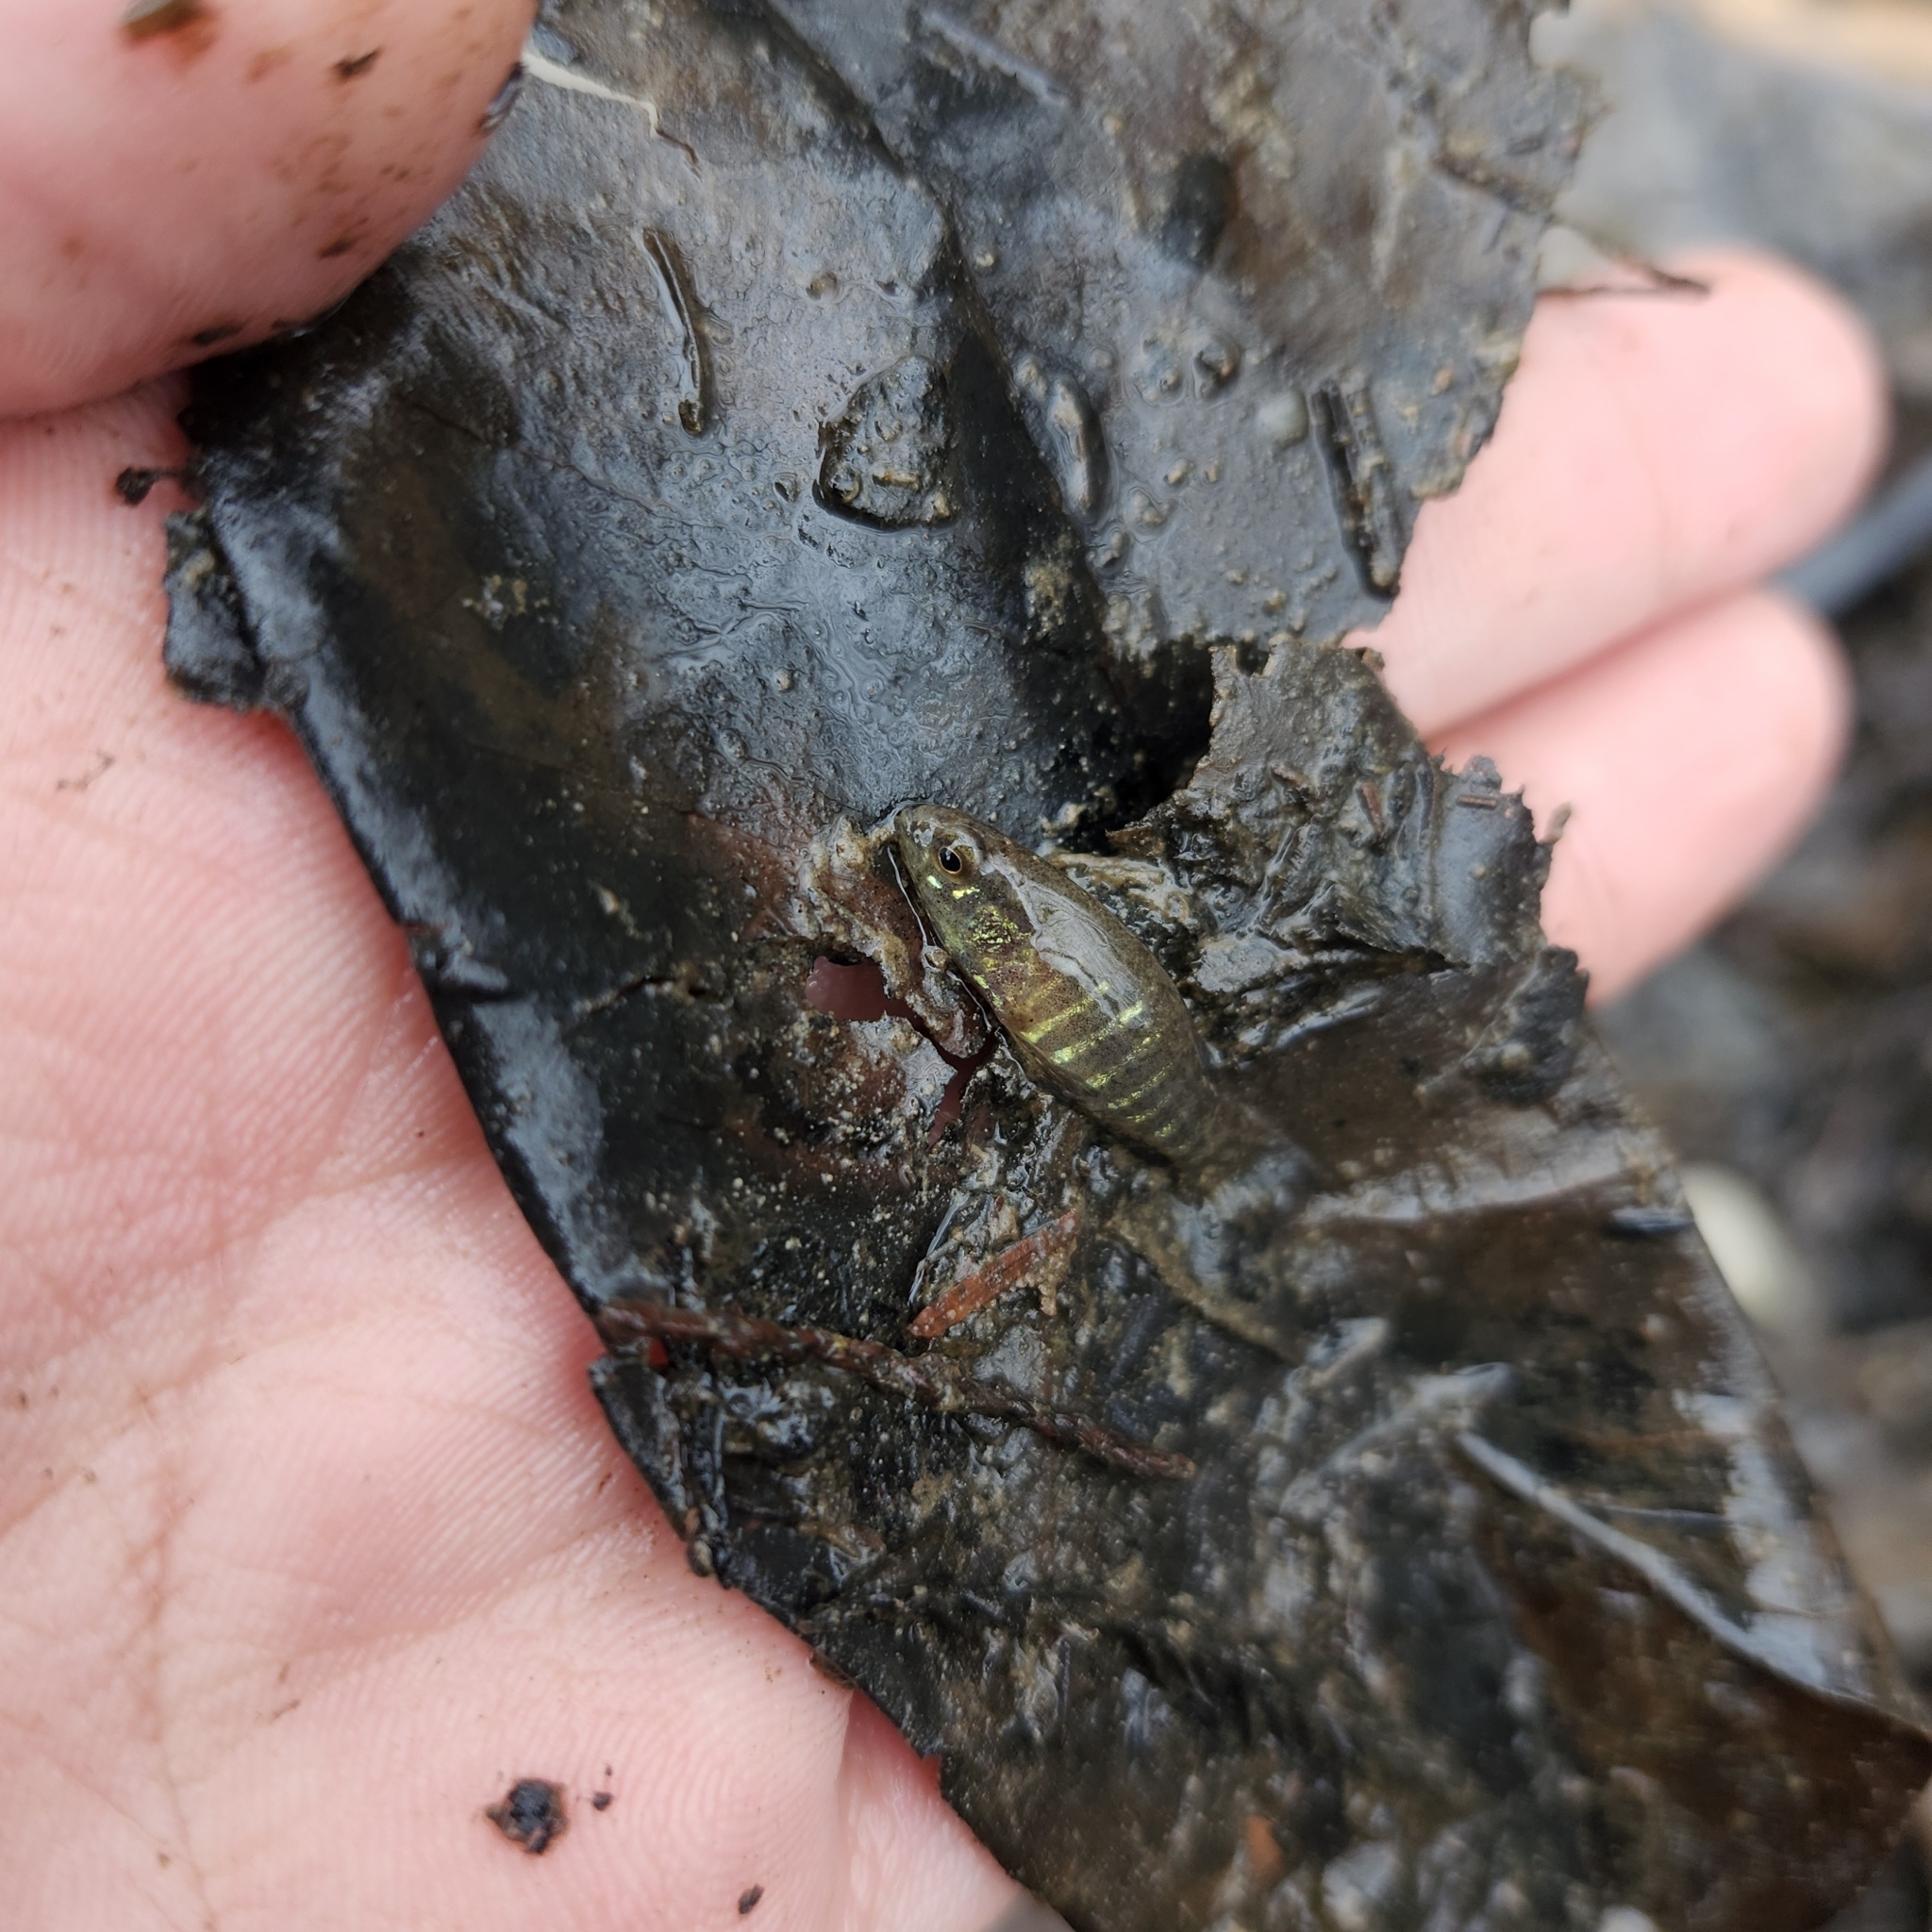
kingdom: Animalia
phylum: Chordata
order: Perciformes
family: Elassomatidae
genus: Elassoma
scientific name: Elassoma zonatum
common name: Banded pygmy sunfish
